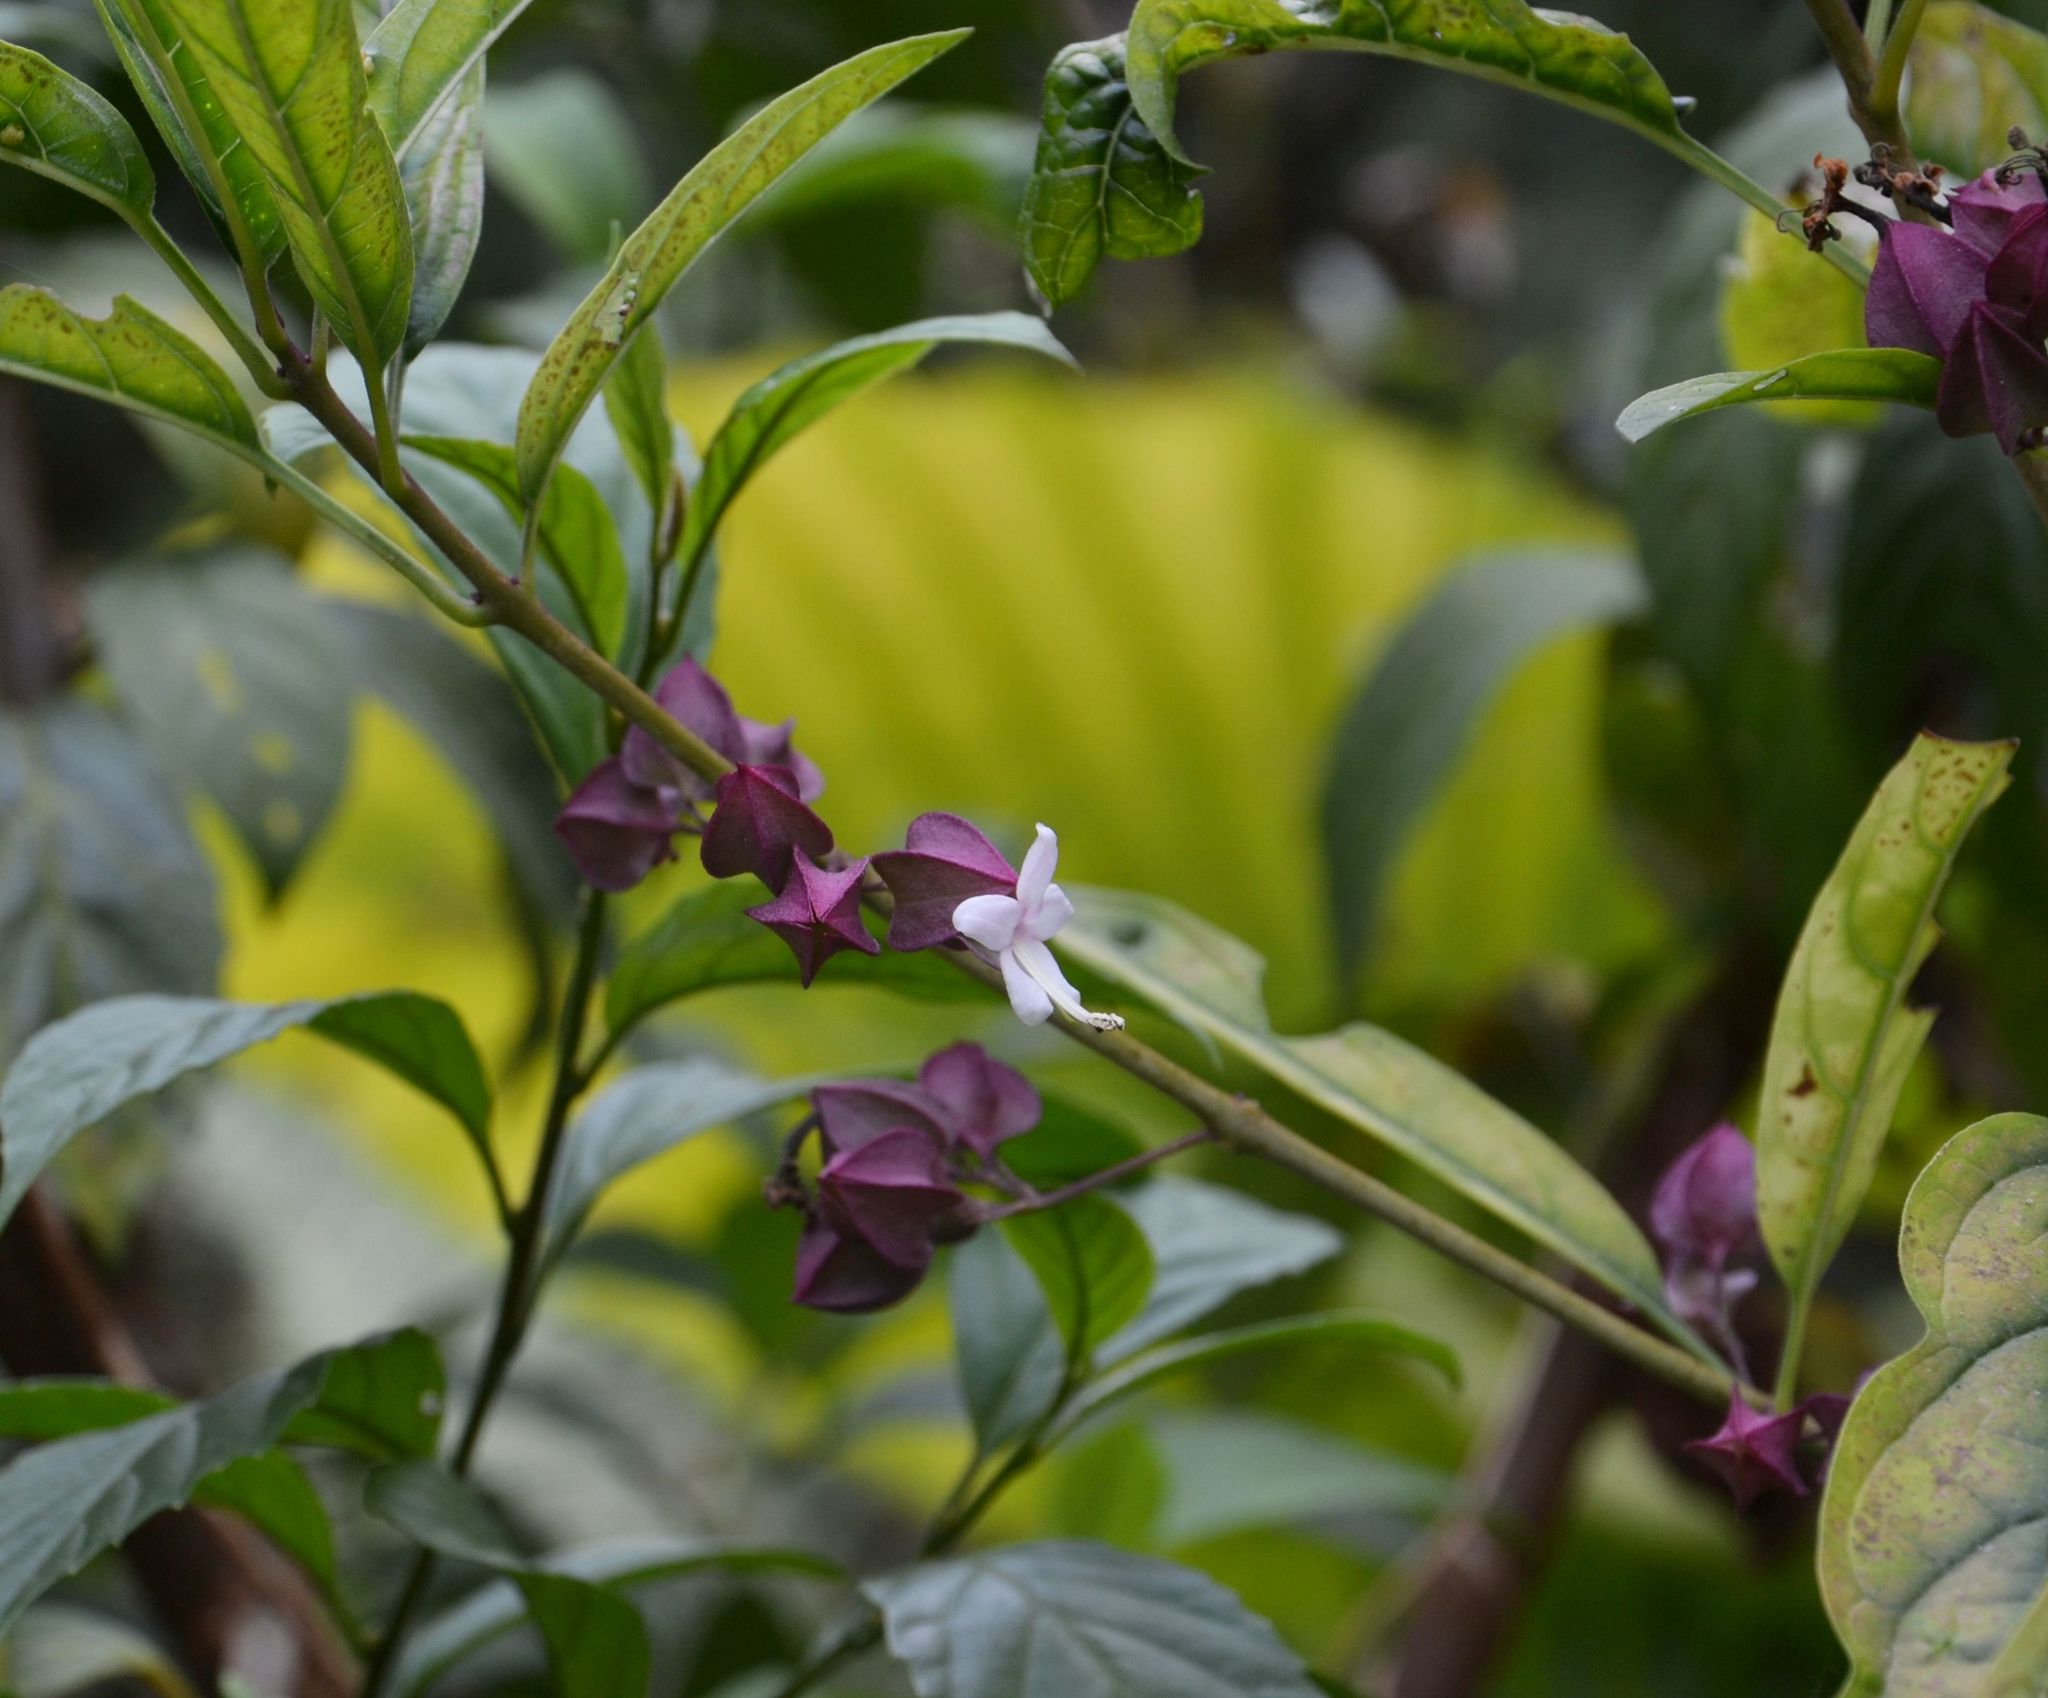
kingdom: Plantae
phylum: Tracheophyta
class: Magnoliopsida
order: Lamiales
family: Lamiaceae
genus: Clerodendrum
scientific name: Clerodendrum fortunatum
